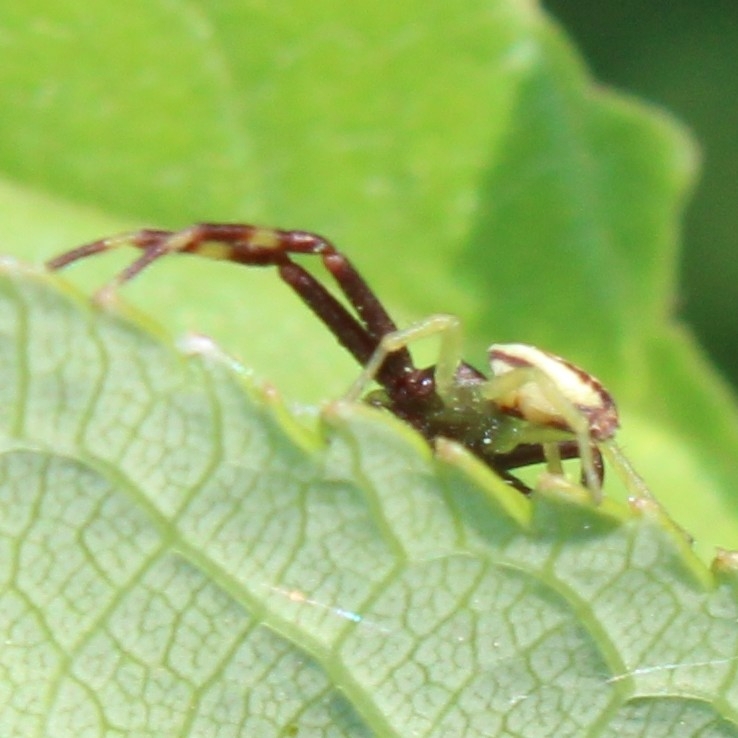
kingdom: Animalia
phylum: Arthropoda
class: Arachnida
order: Araneae
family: Thomisidae
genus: Misumena
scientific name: Misumena vatia
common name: Goldenrod crab spider
